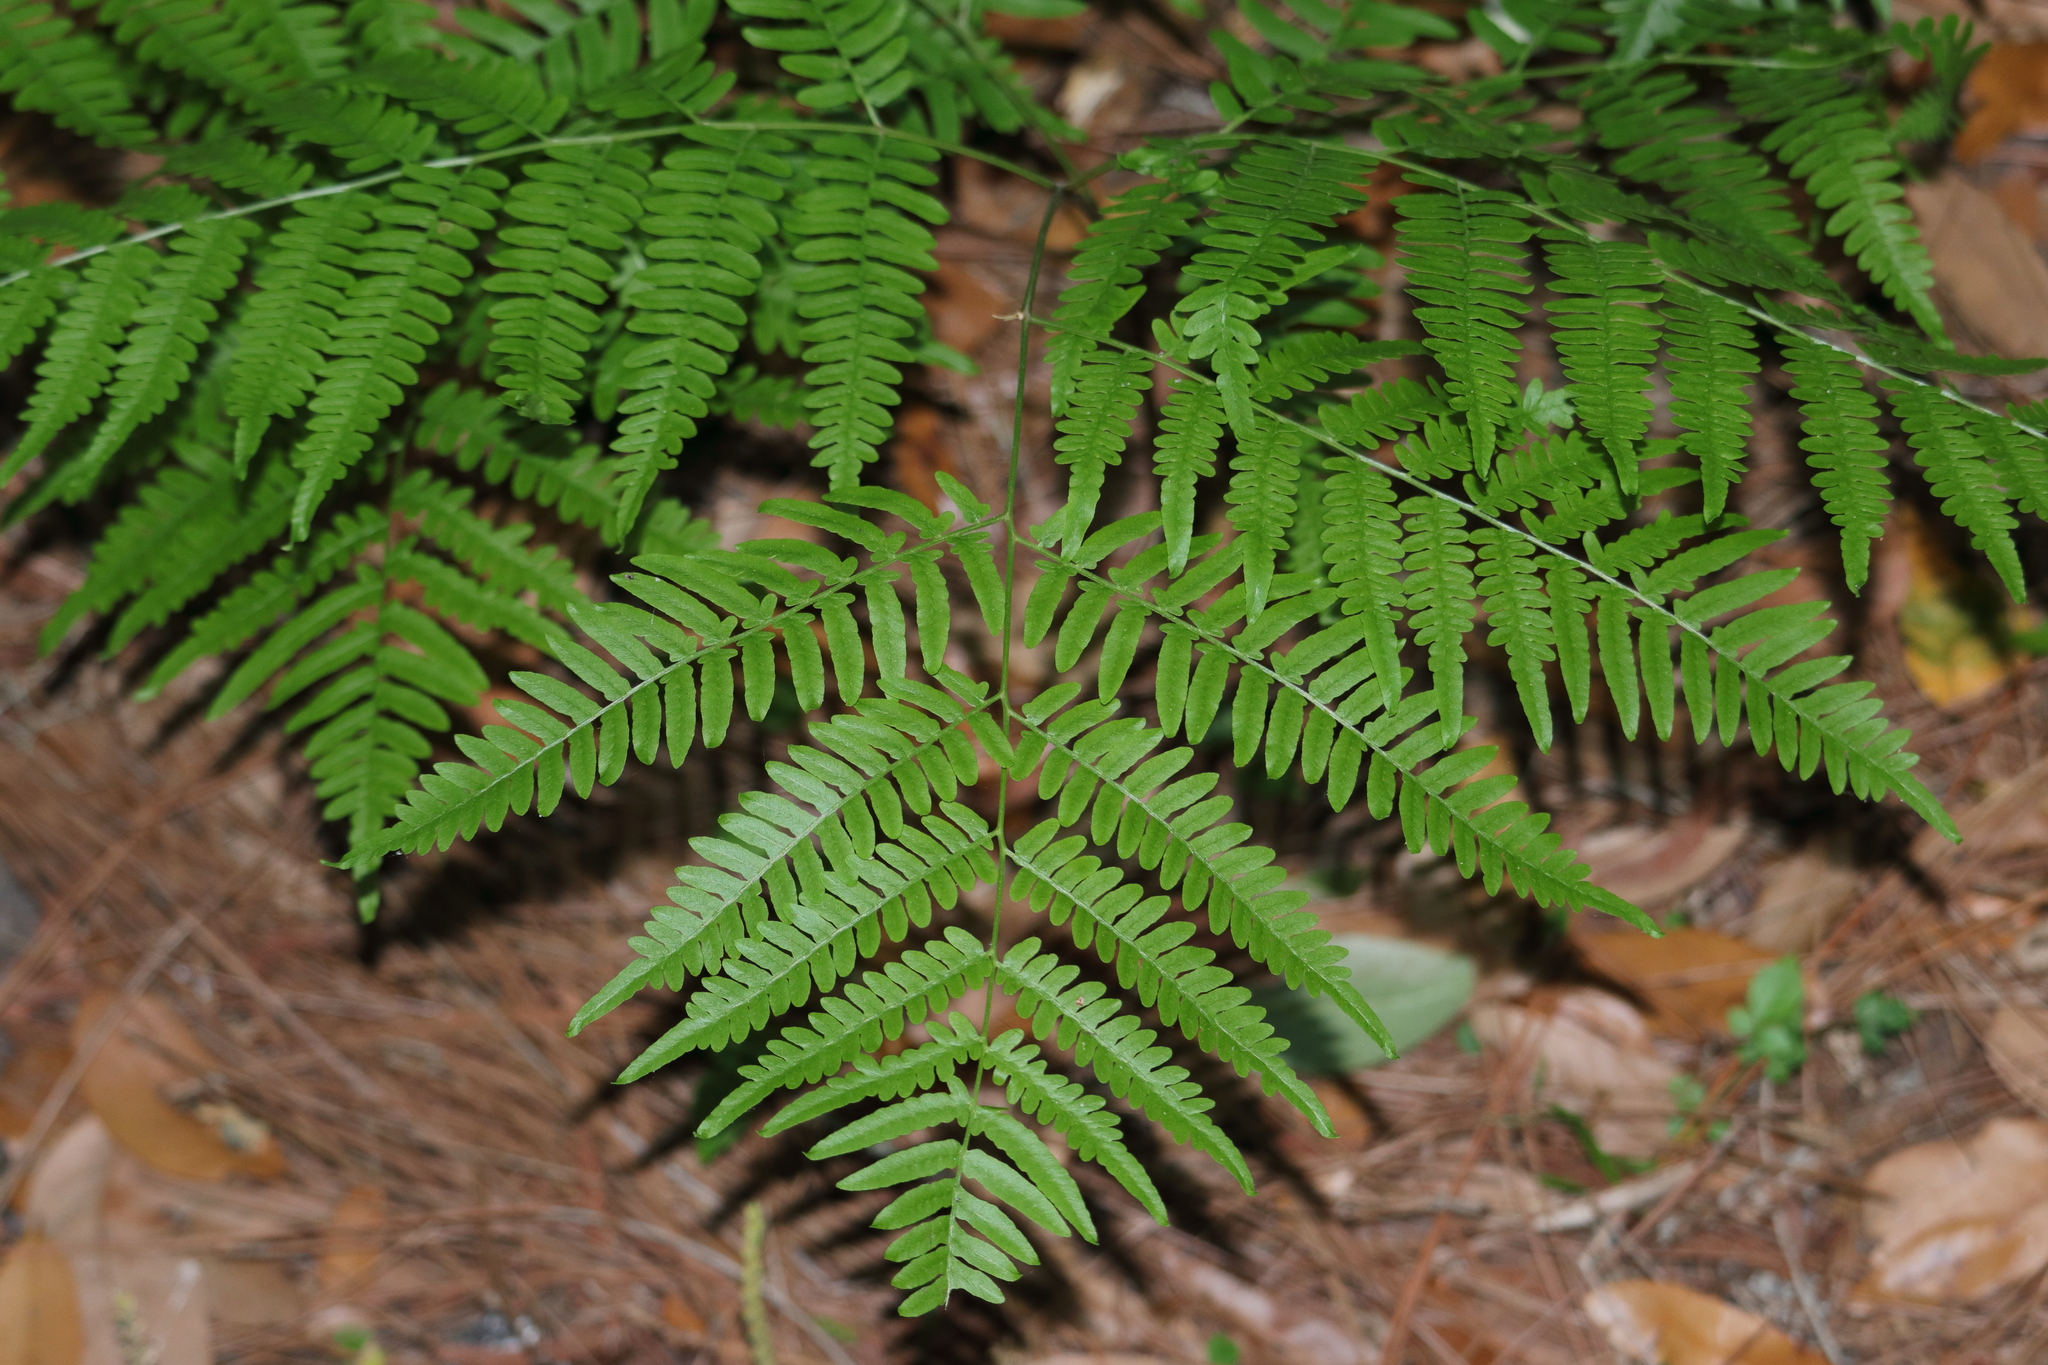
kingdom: Plantae
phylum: Tracheophyta
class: Polypodiopsida
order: Polypodiales
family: Dennstaedtiaceae
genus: Pteridium
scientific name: Pteridium
